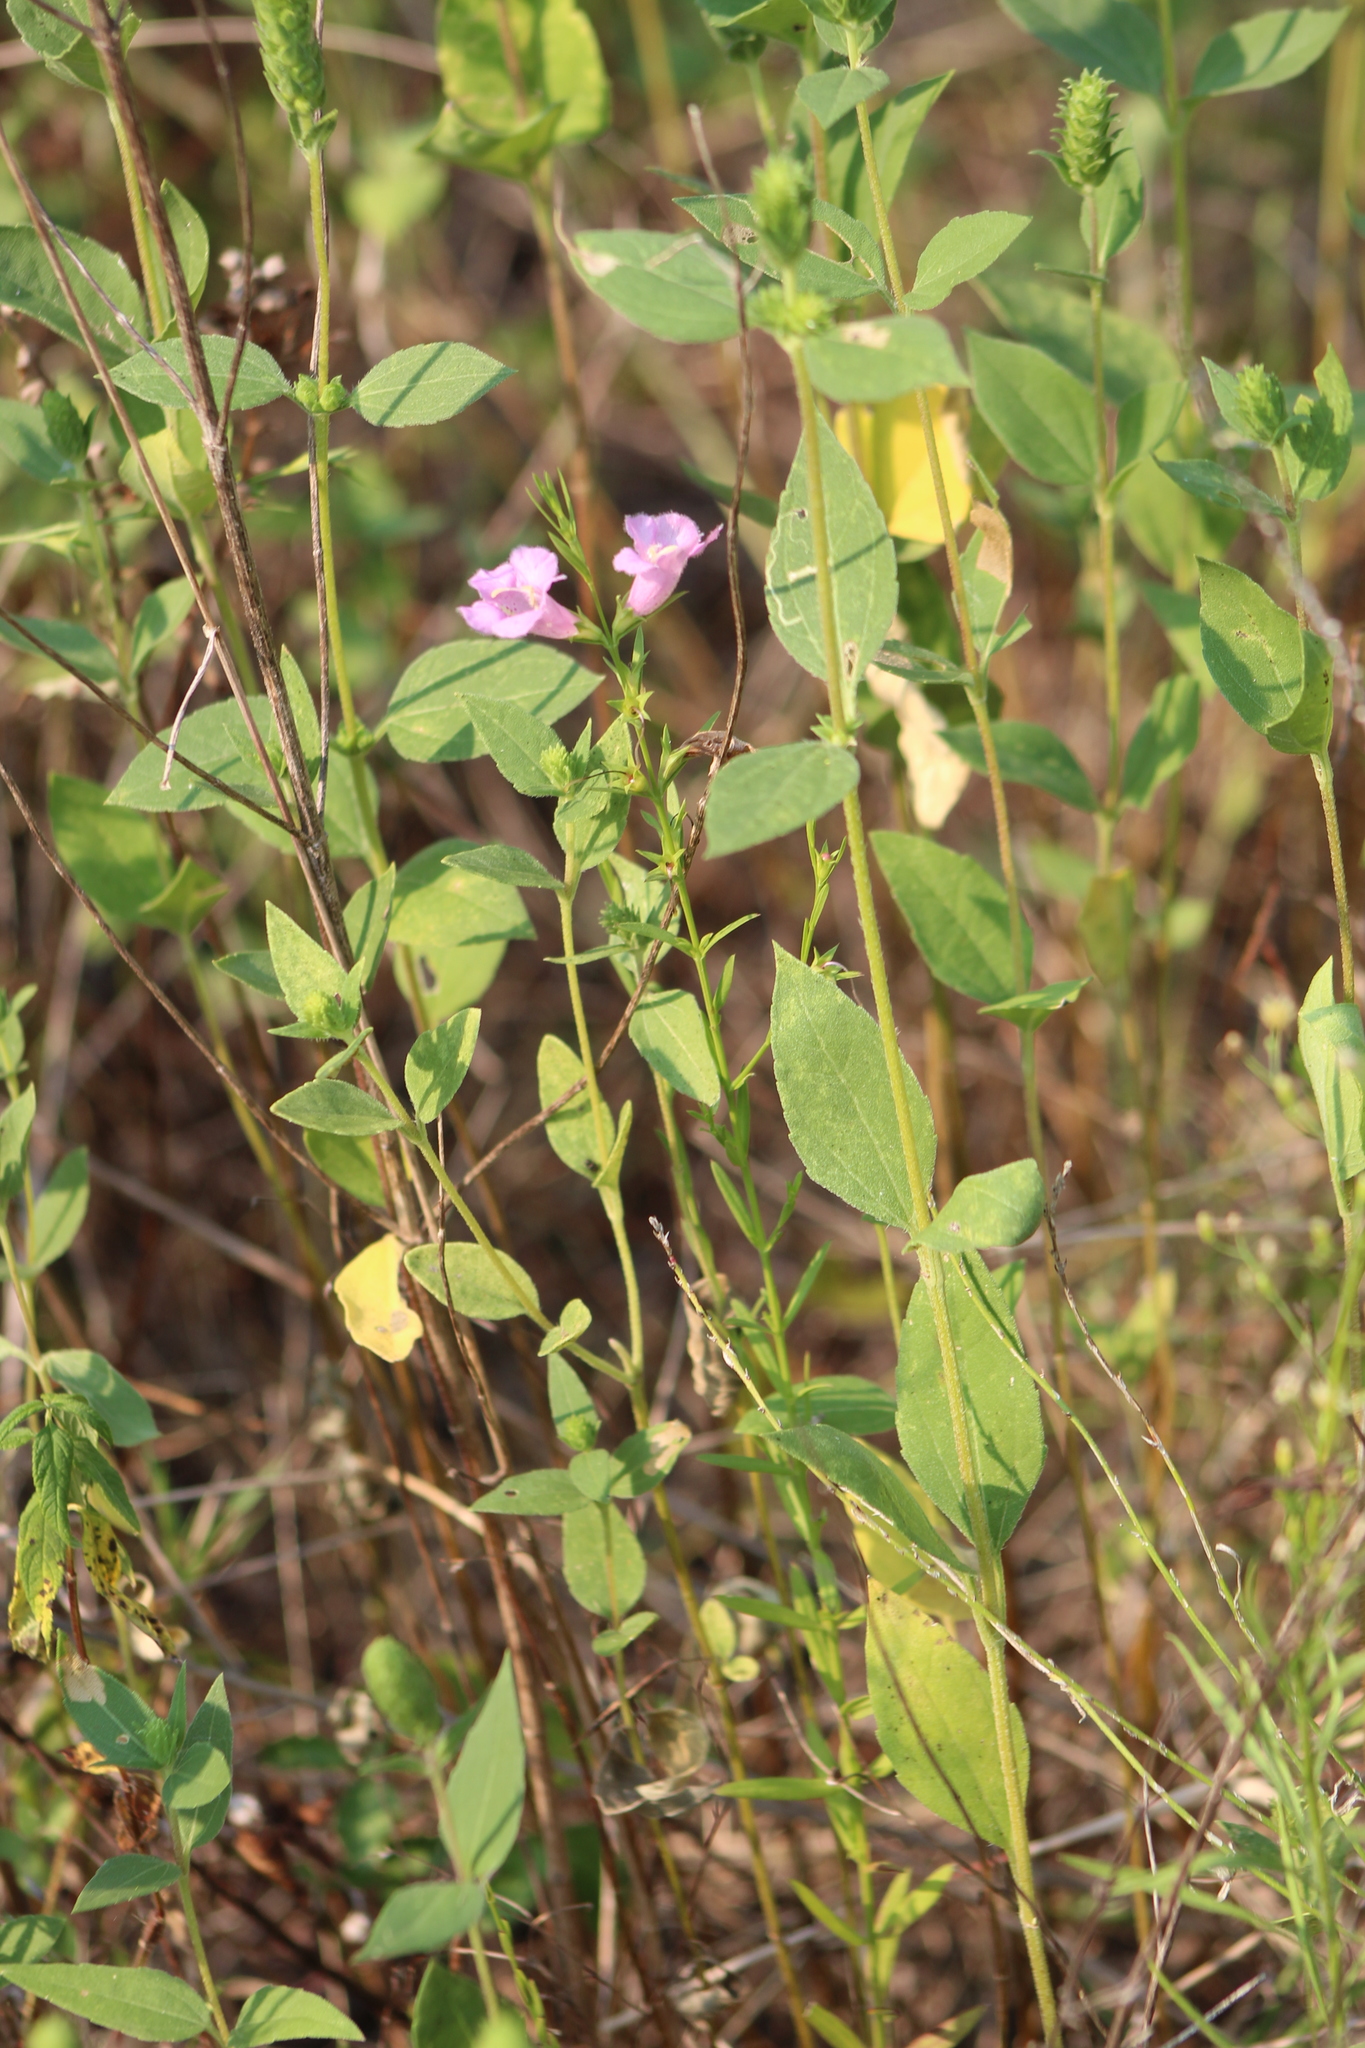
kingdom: Plantae
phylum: Tracheophyta
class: Magnoliopsida
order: Lamiales
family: Orobanchaceae
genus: Agalinis
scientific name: Agalinis heterophylla
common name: Prairie agalinis
